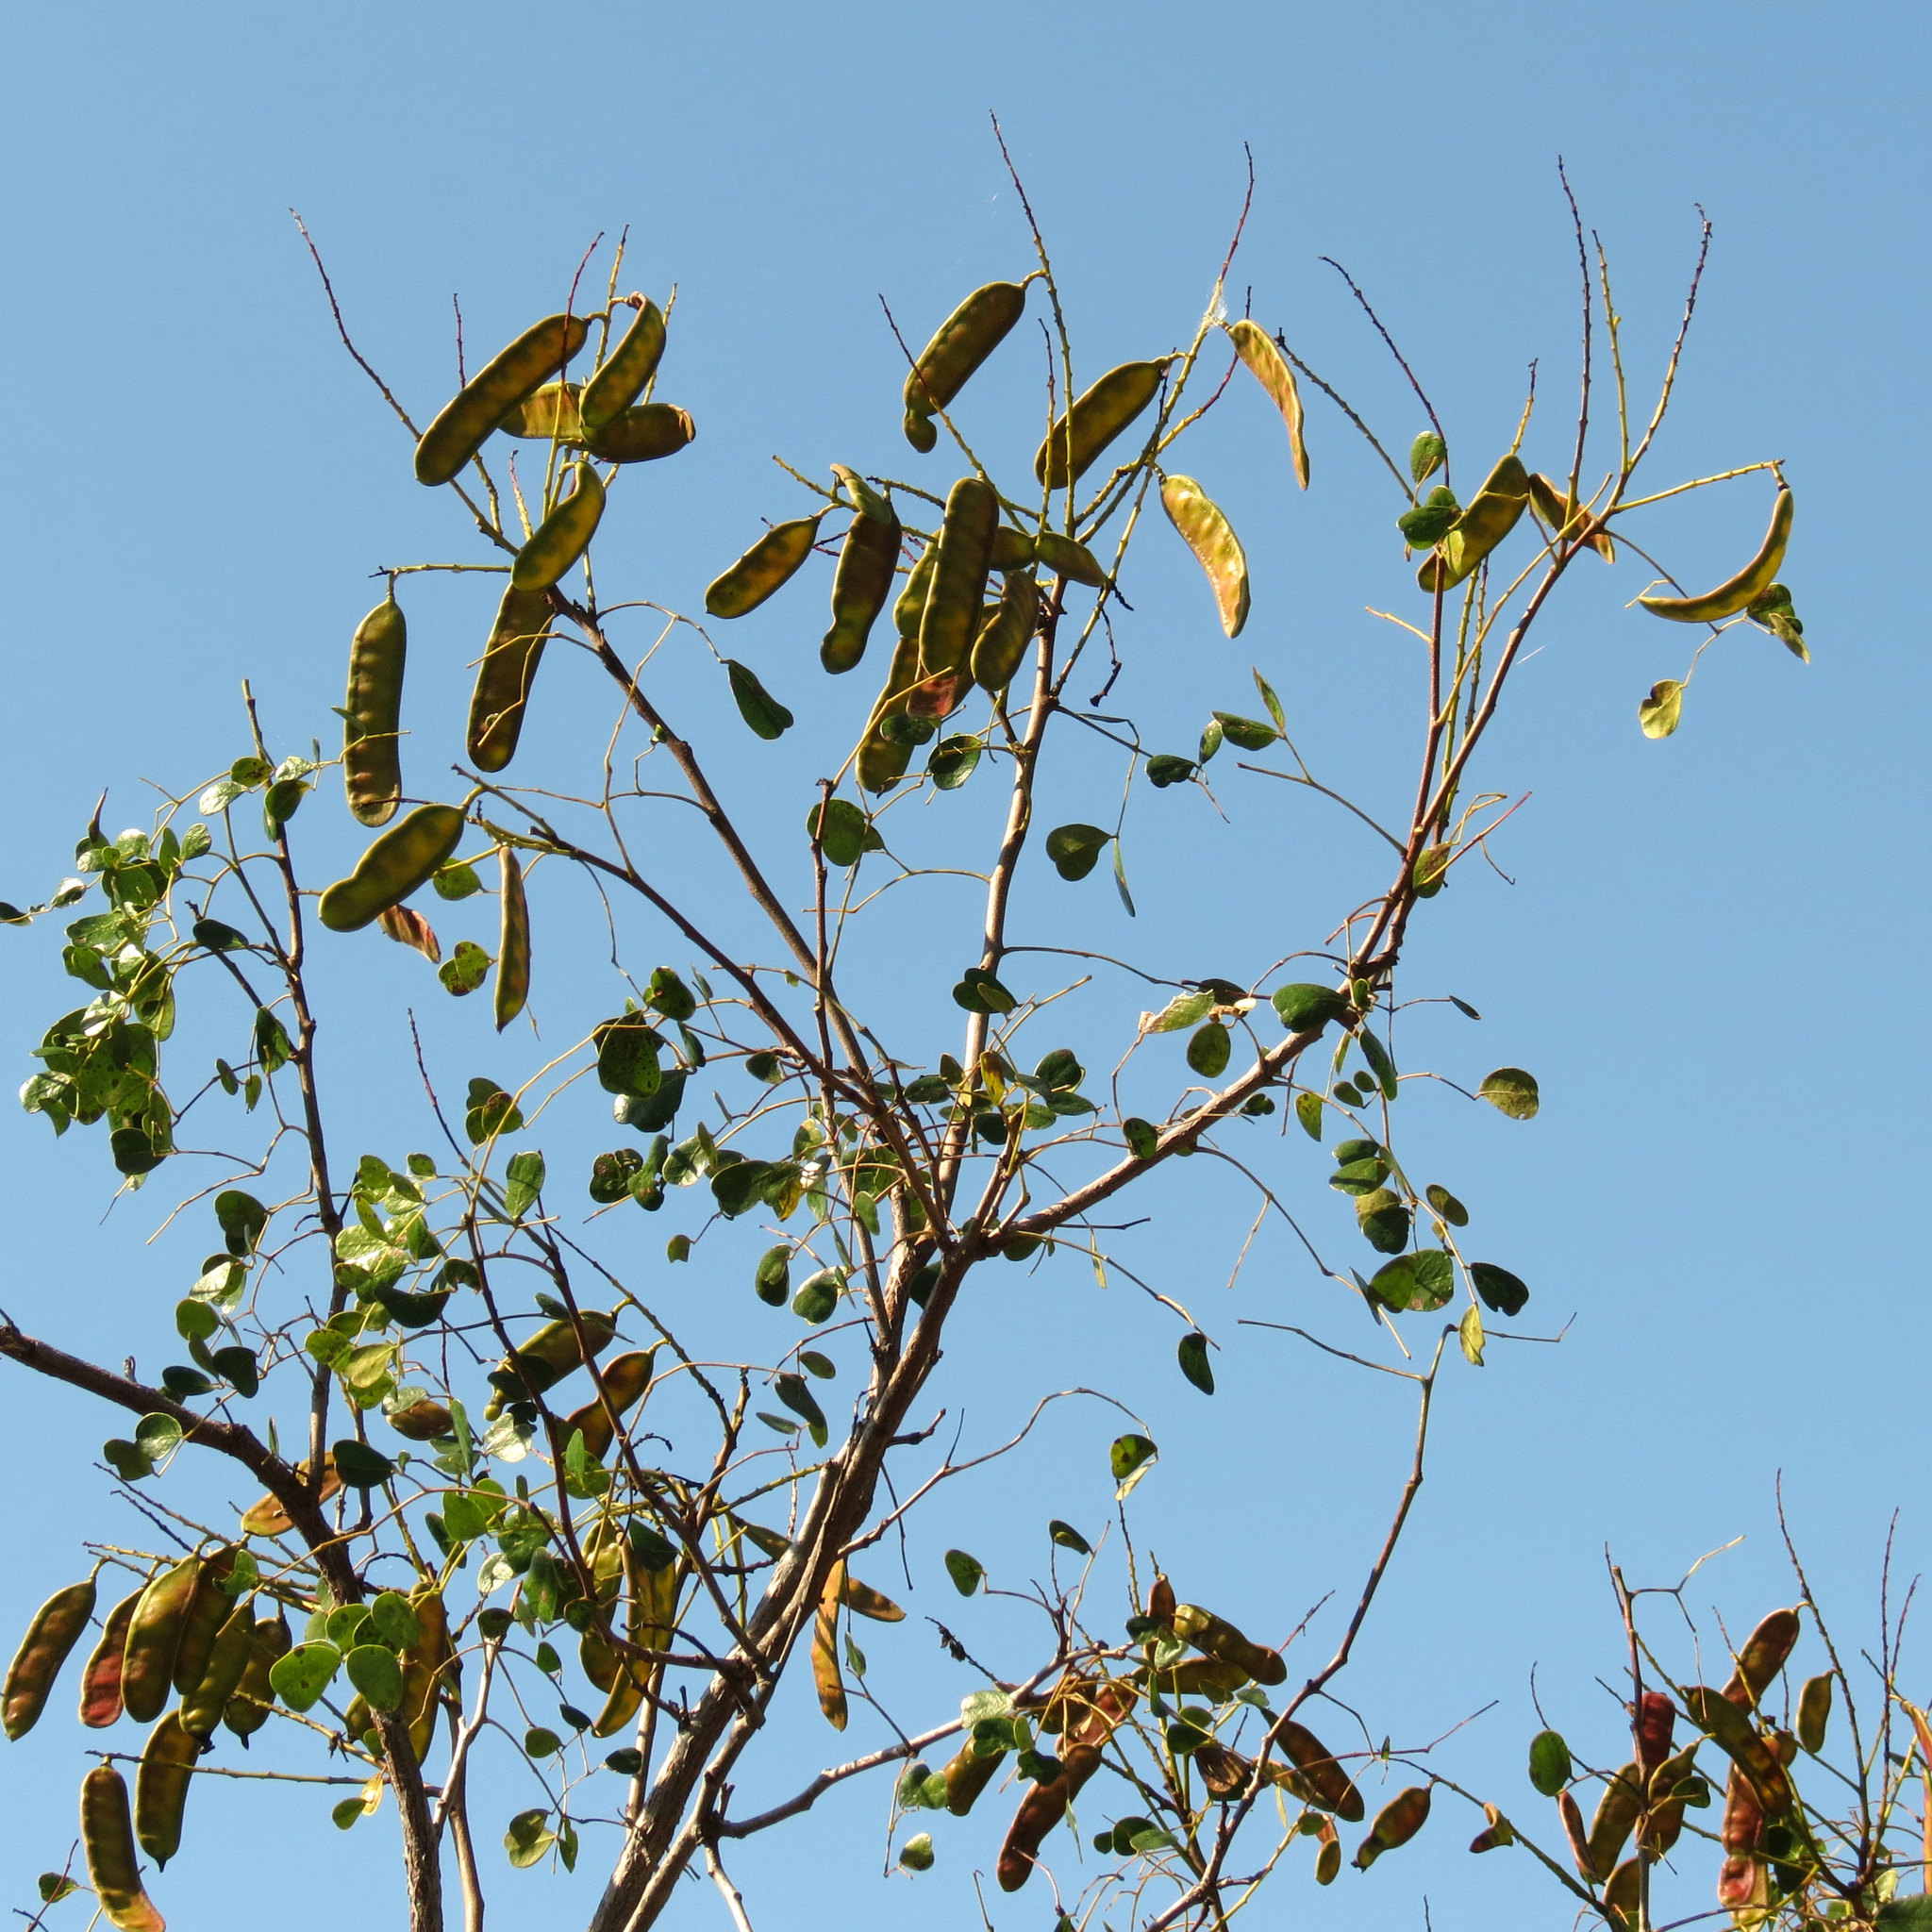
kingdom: Plantae
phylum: Tracheophyta
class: Magnoliopsida
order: Fabales
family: Fabaceae
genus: Tara
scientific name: Tara vesicaria
